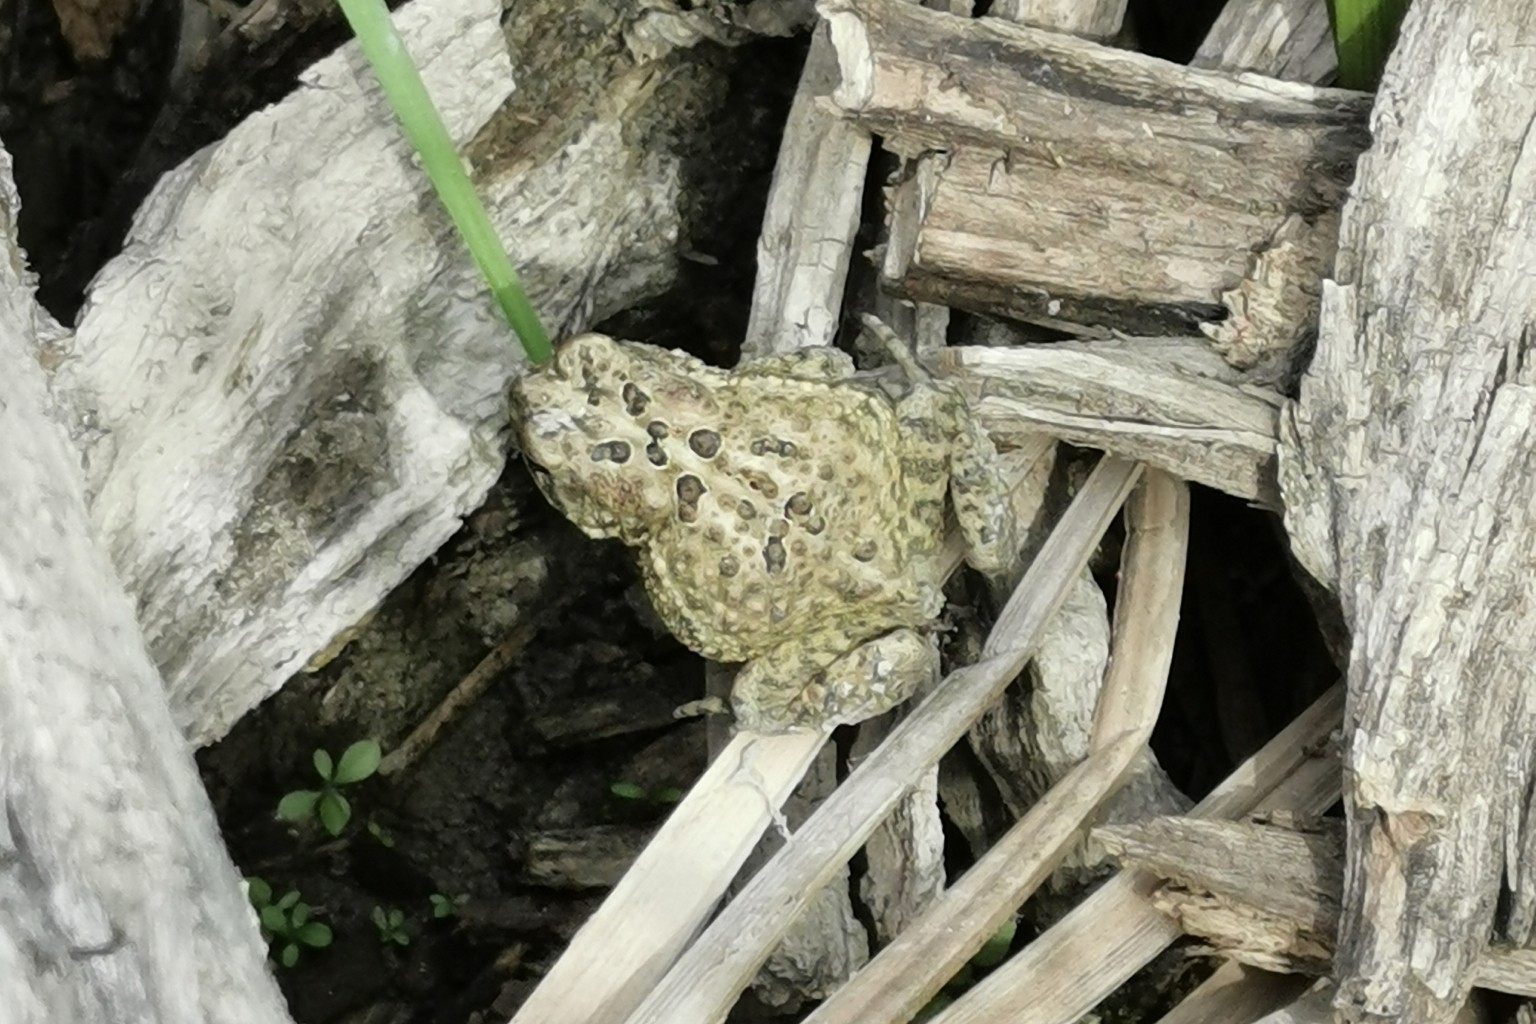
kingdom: Animalia
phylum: Chordata
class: Amphibia
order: Anura
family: Bufonidae
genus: Anaxyrus
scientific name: Anaxyrus americanus
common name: American toad
